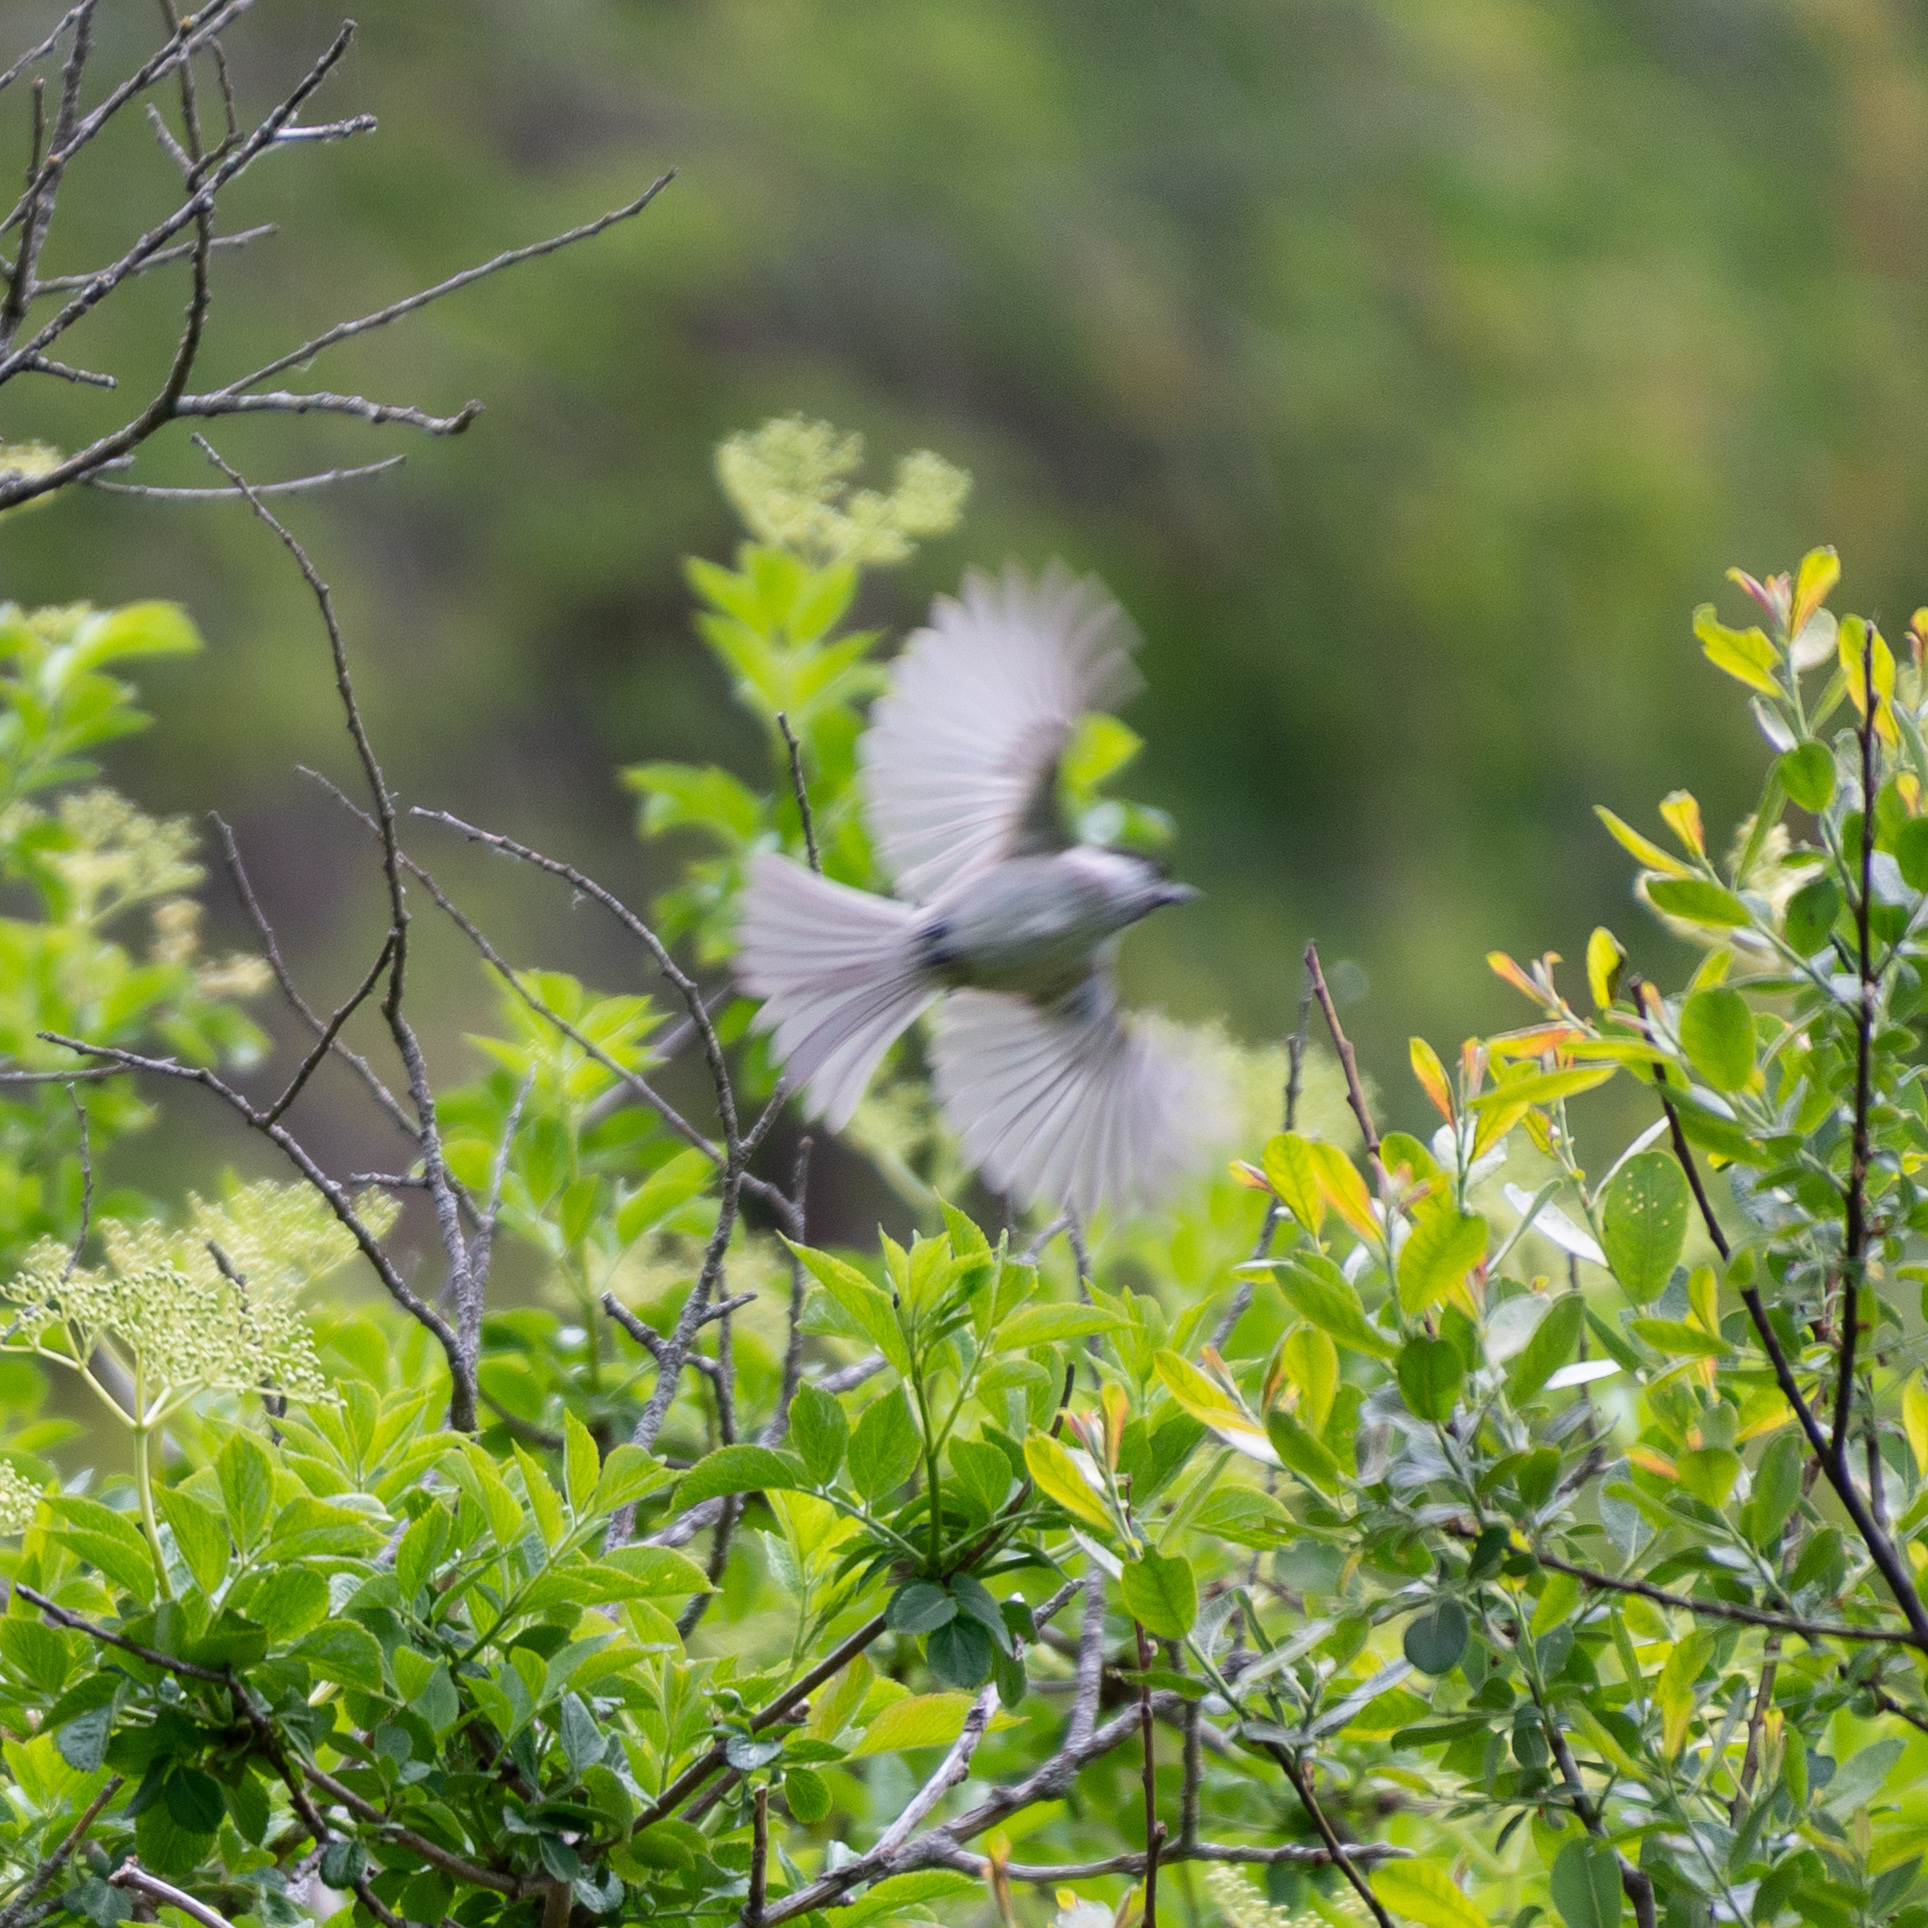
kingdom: Animalia
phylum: Chordata
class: Aves
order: Passeriformes
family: Paridae
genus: Poecile
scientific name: Poecile palustris
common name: Marsh tit
